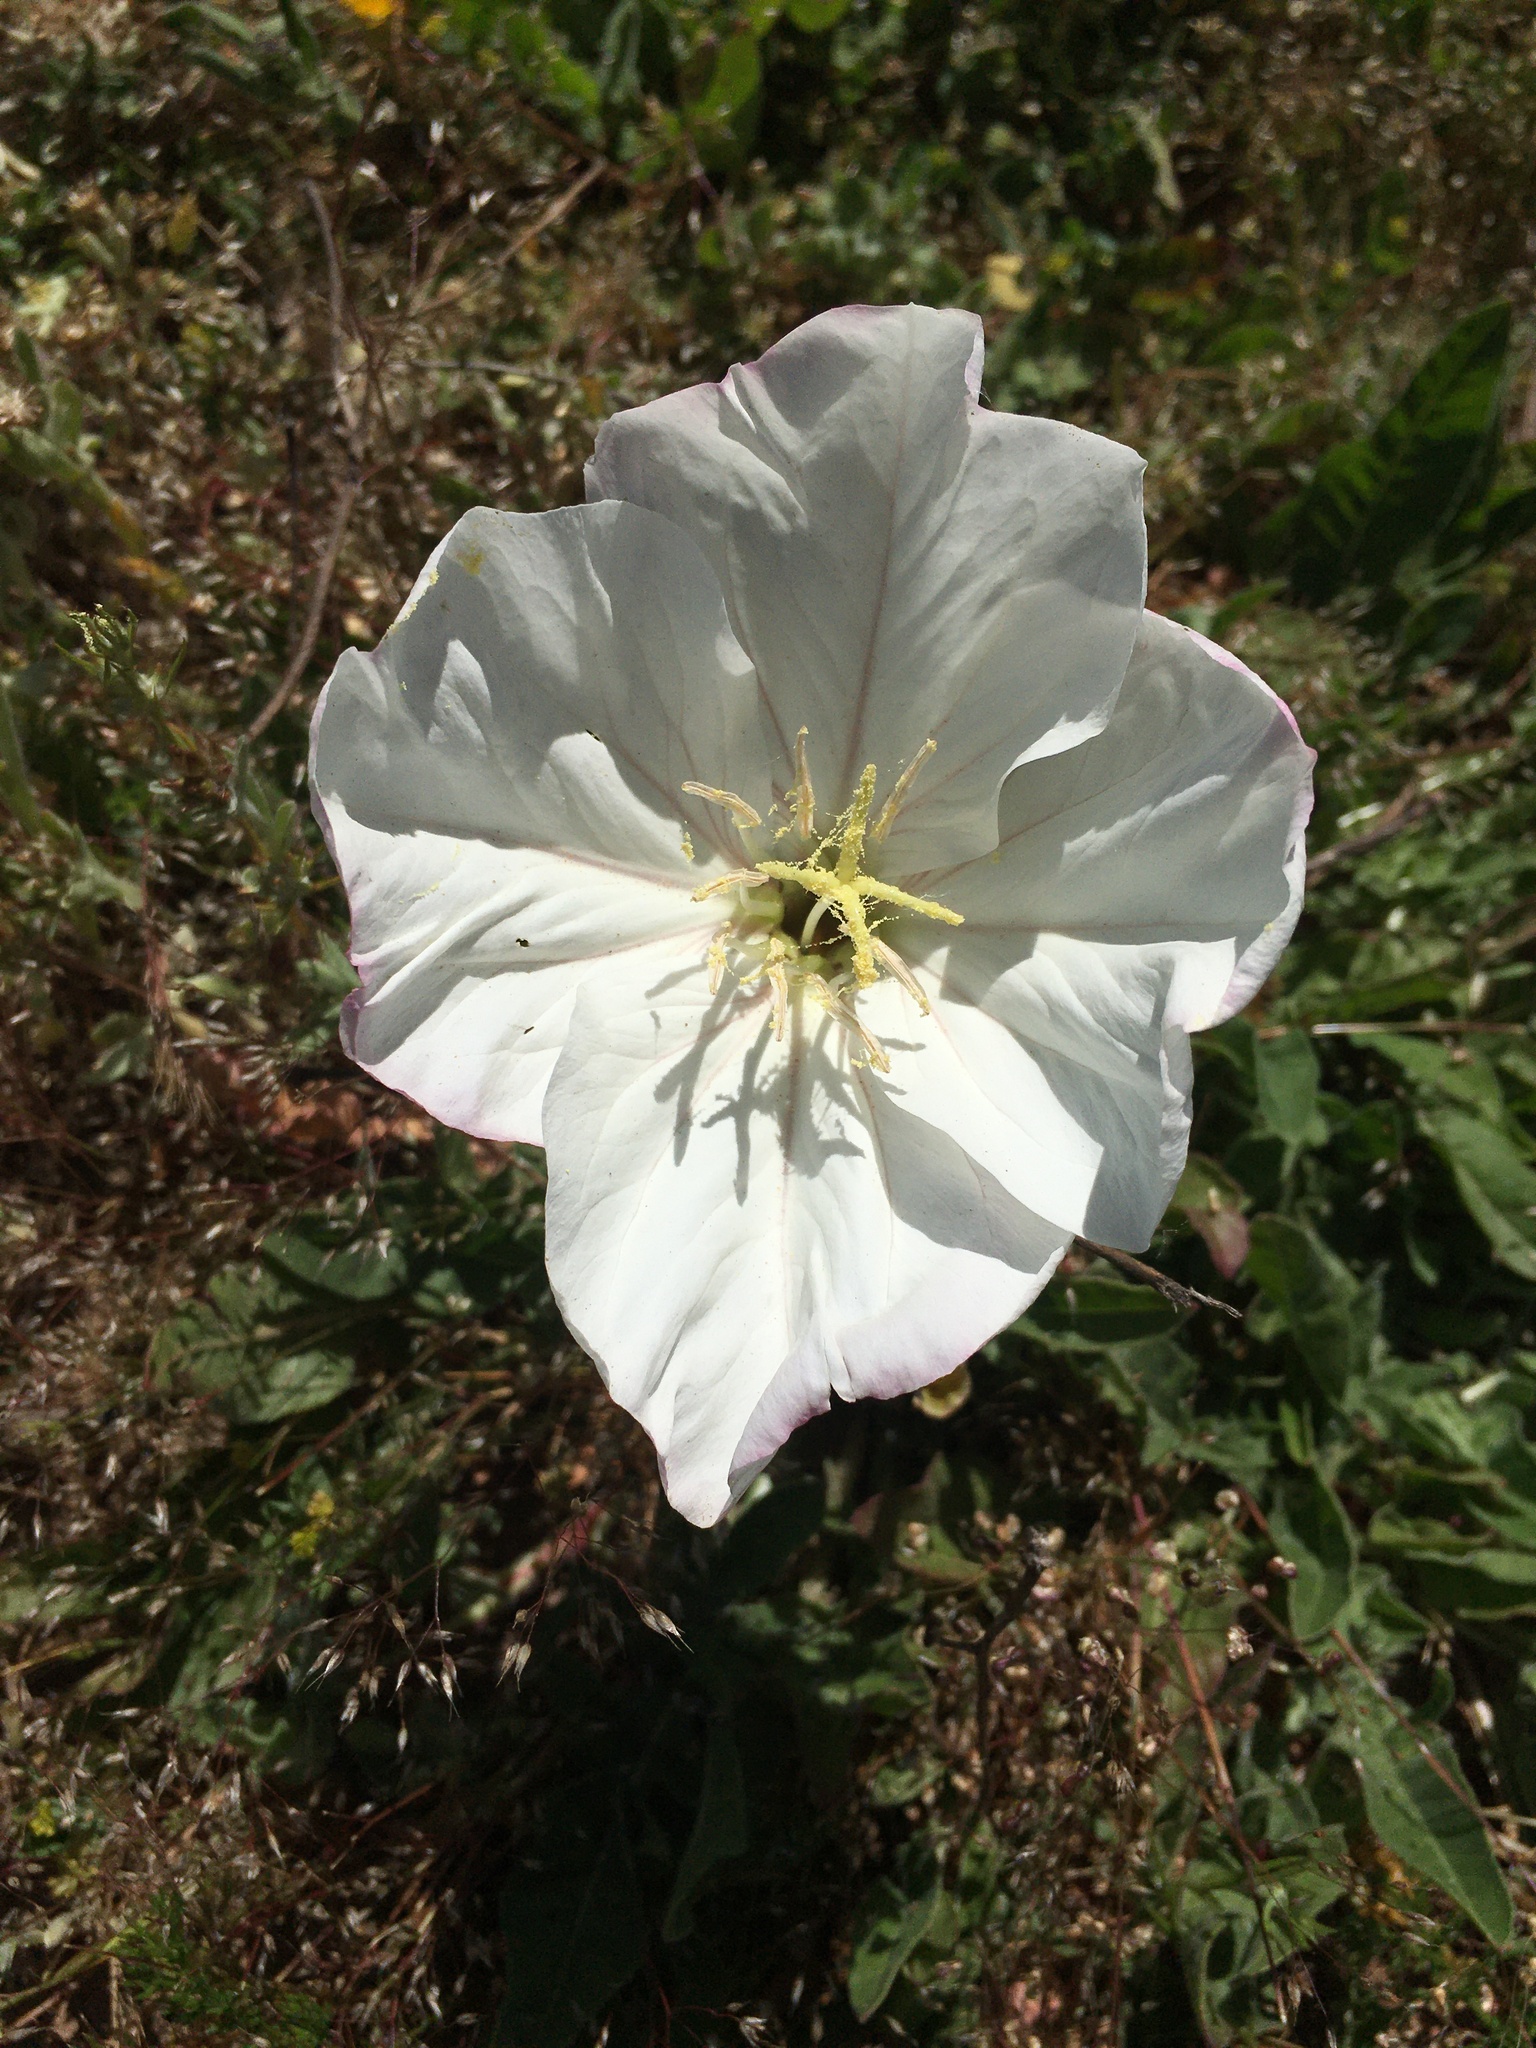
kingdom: Plantae
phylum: Tracheophyta
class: Magnoliopsida
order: Myrtales
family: Onagraceae
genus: Oenothera
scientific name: Oenothera acaulis
